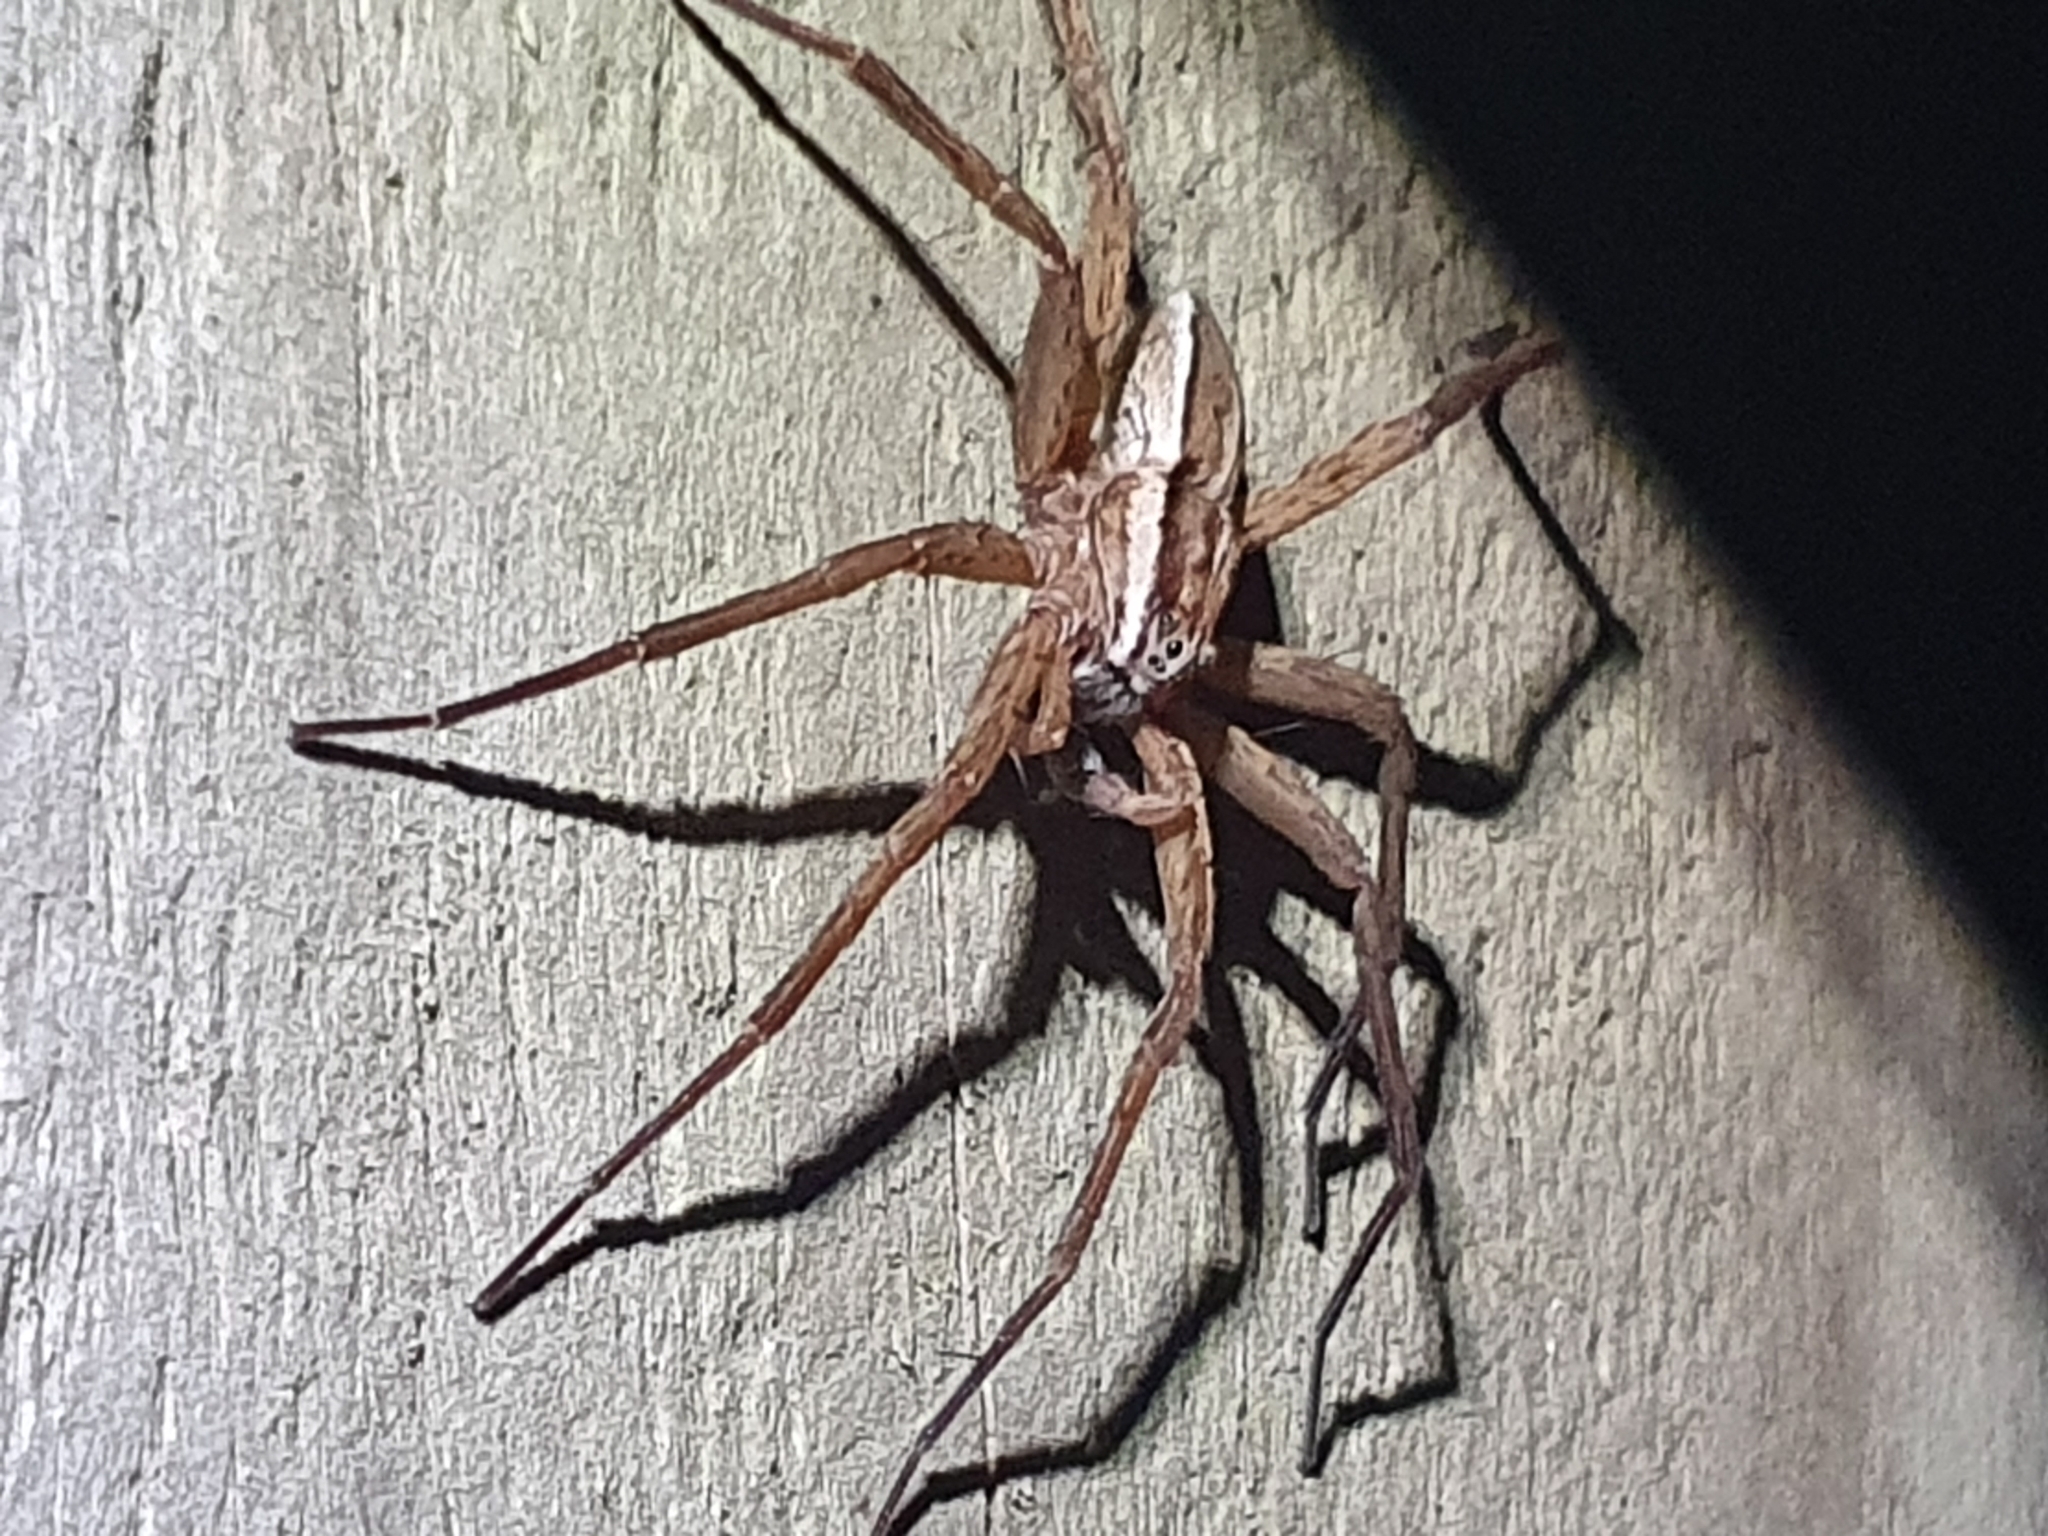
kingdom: Animalia
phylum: Arthropoda
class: Arachnida
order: Araneae
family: Pisauridae
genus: Dolomedes
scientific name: Dolomedes minor
